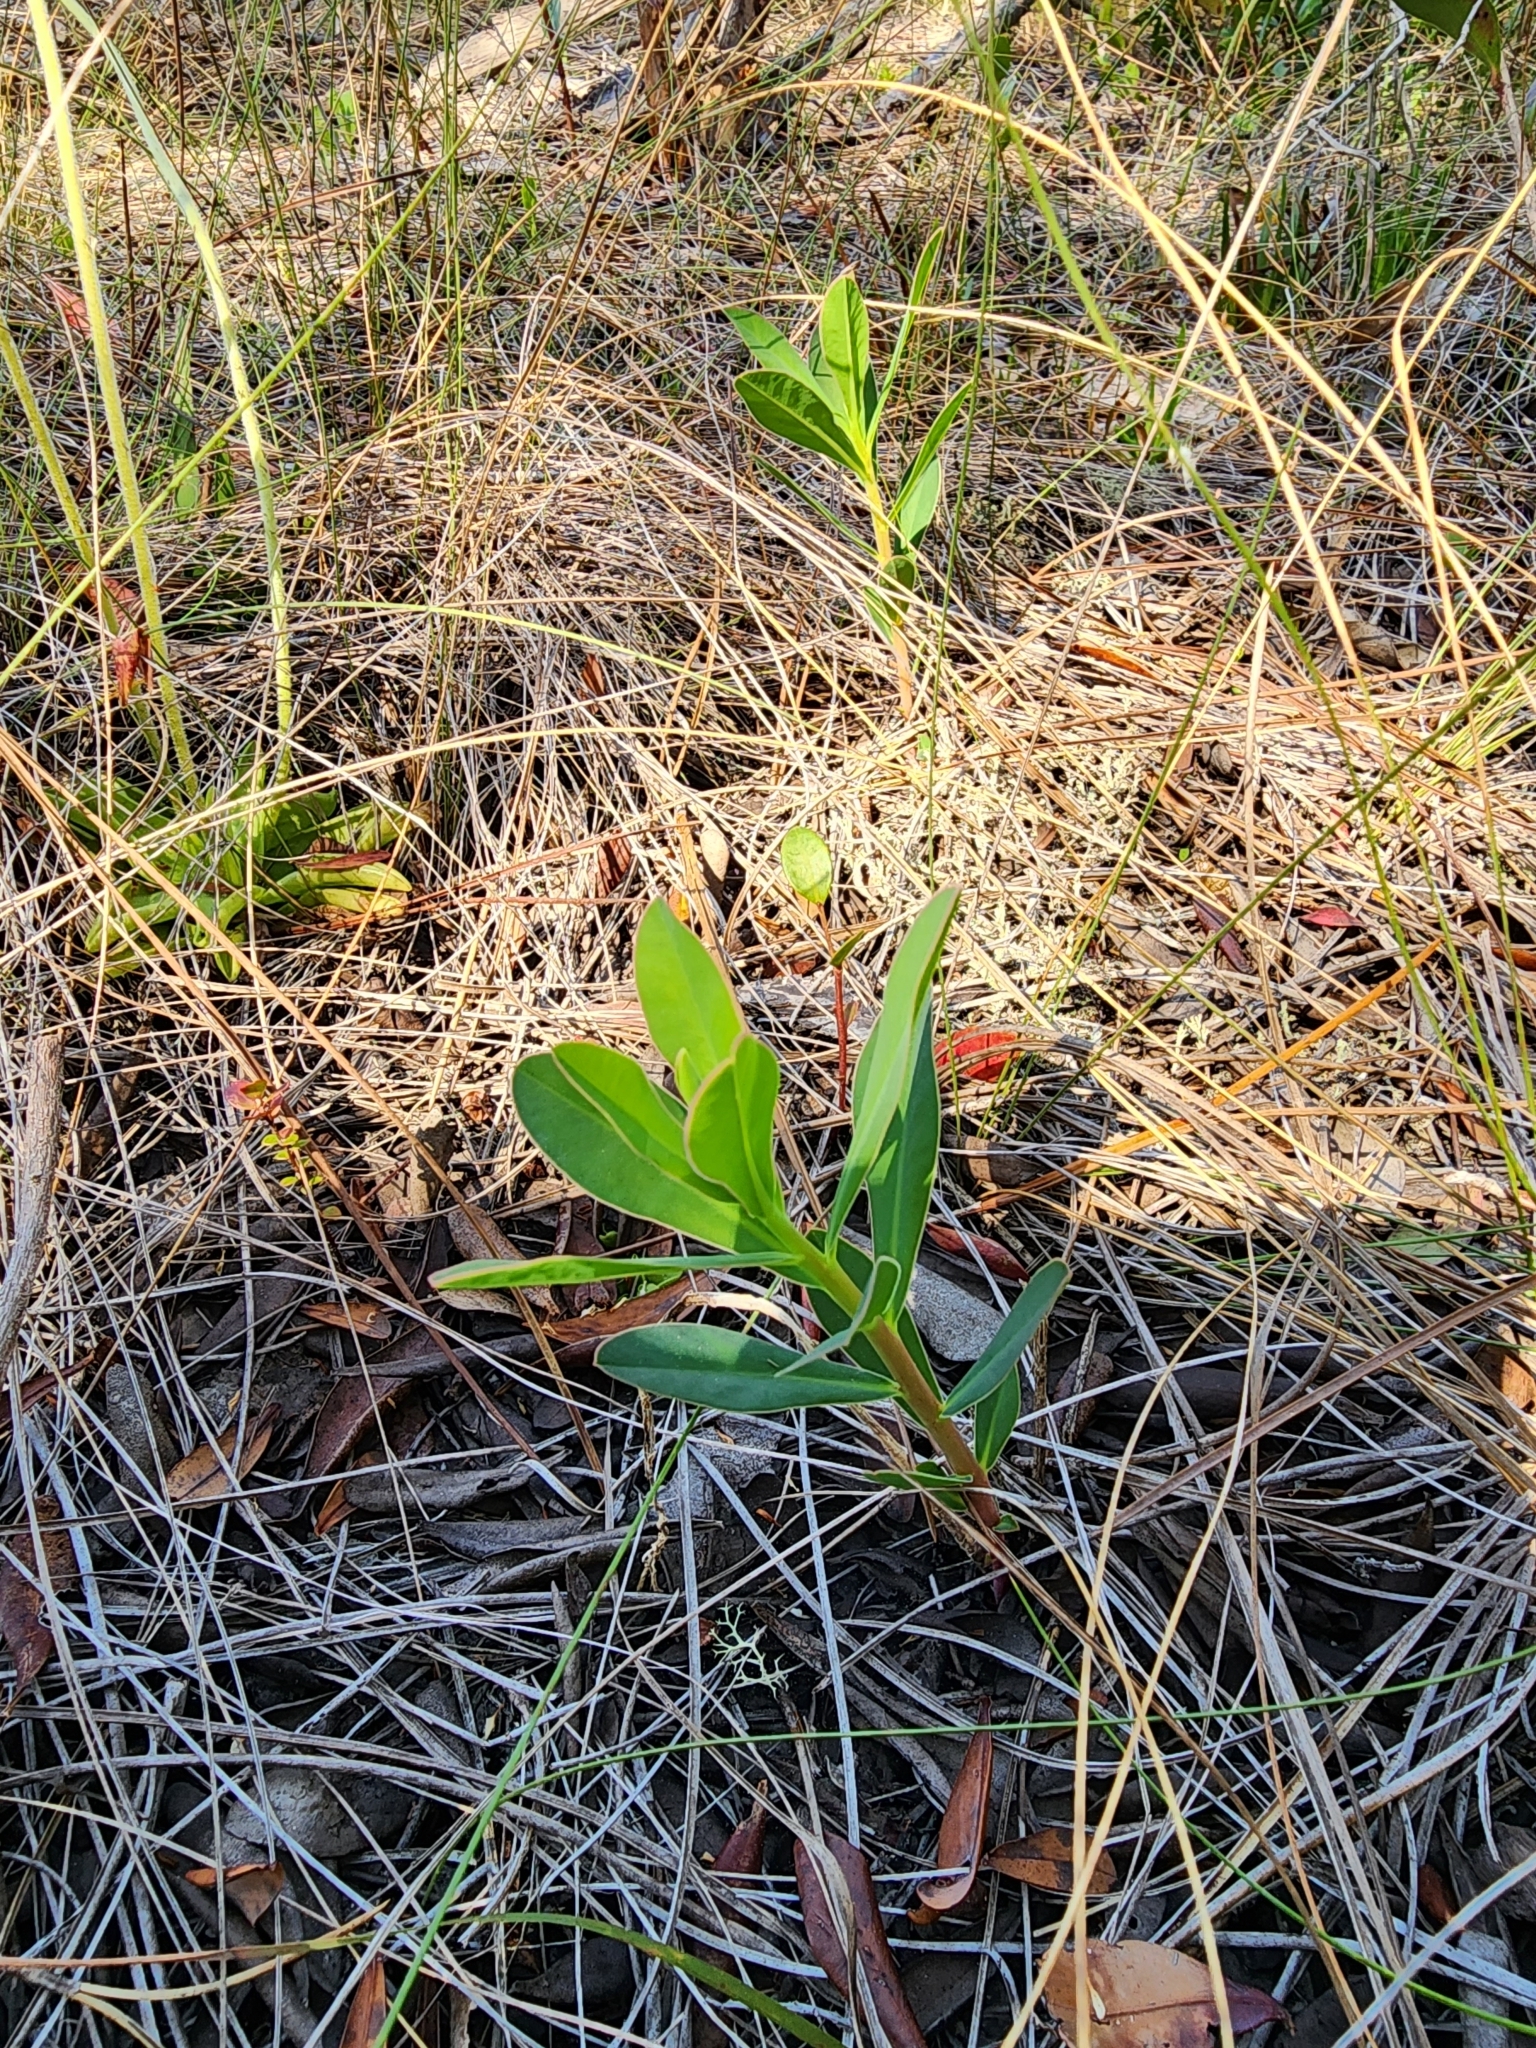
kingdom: Plantae
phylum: Tracheophyta
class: Magnoliopsida
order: Malpighiales
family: Euphorbiaceae
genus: Euphorbia
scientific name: Euphorbia telephioides
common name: Telephus spurge
